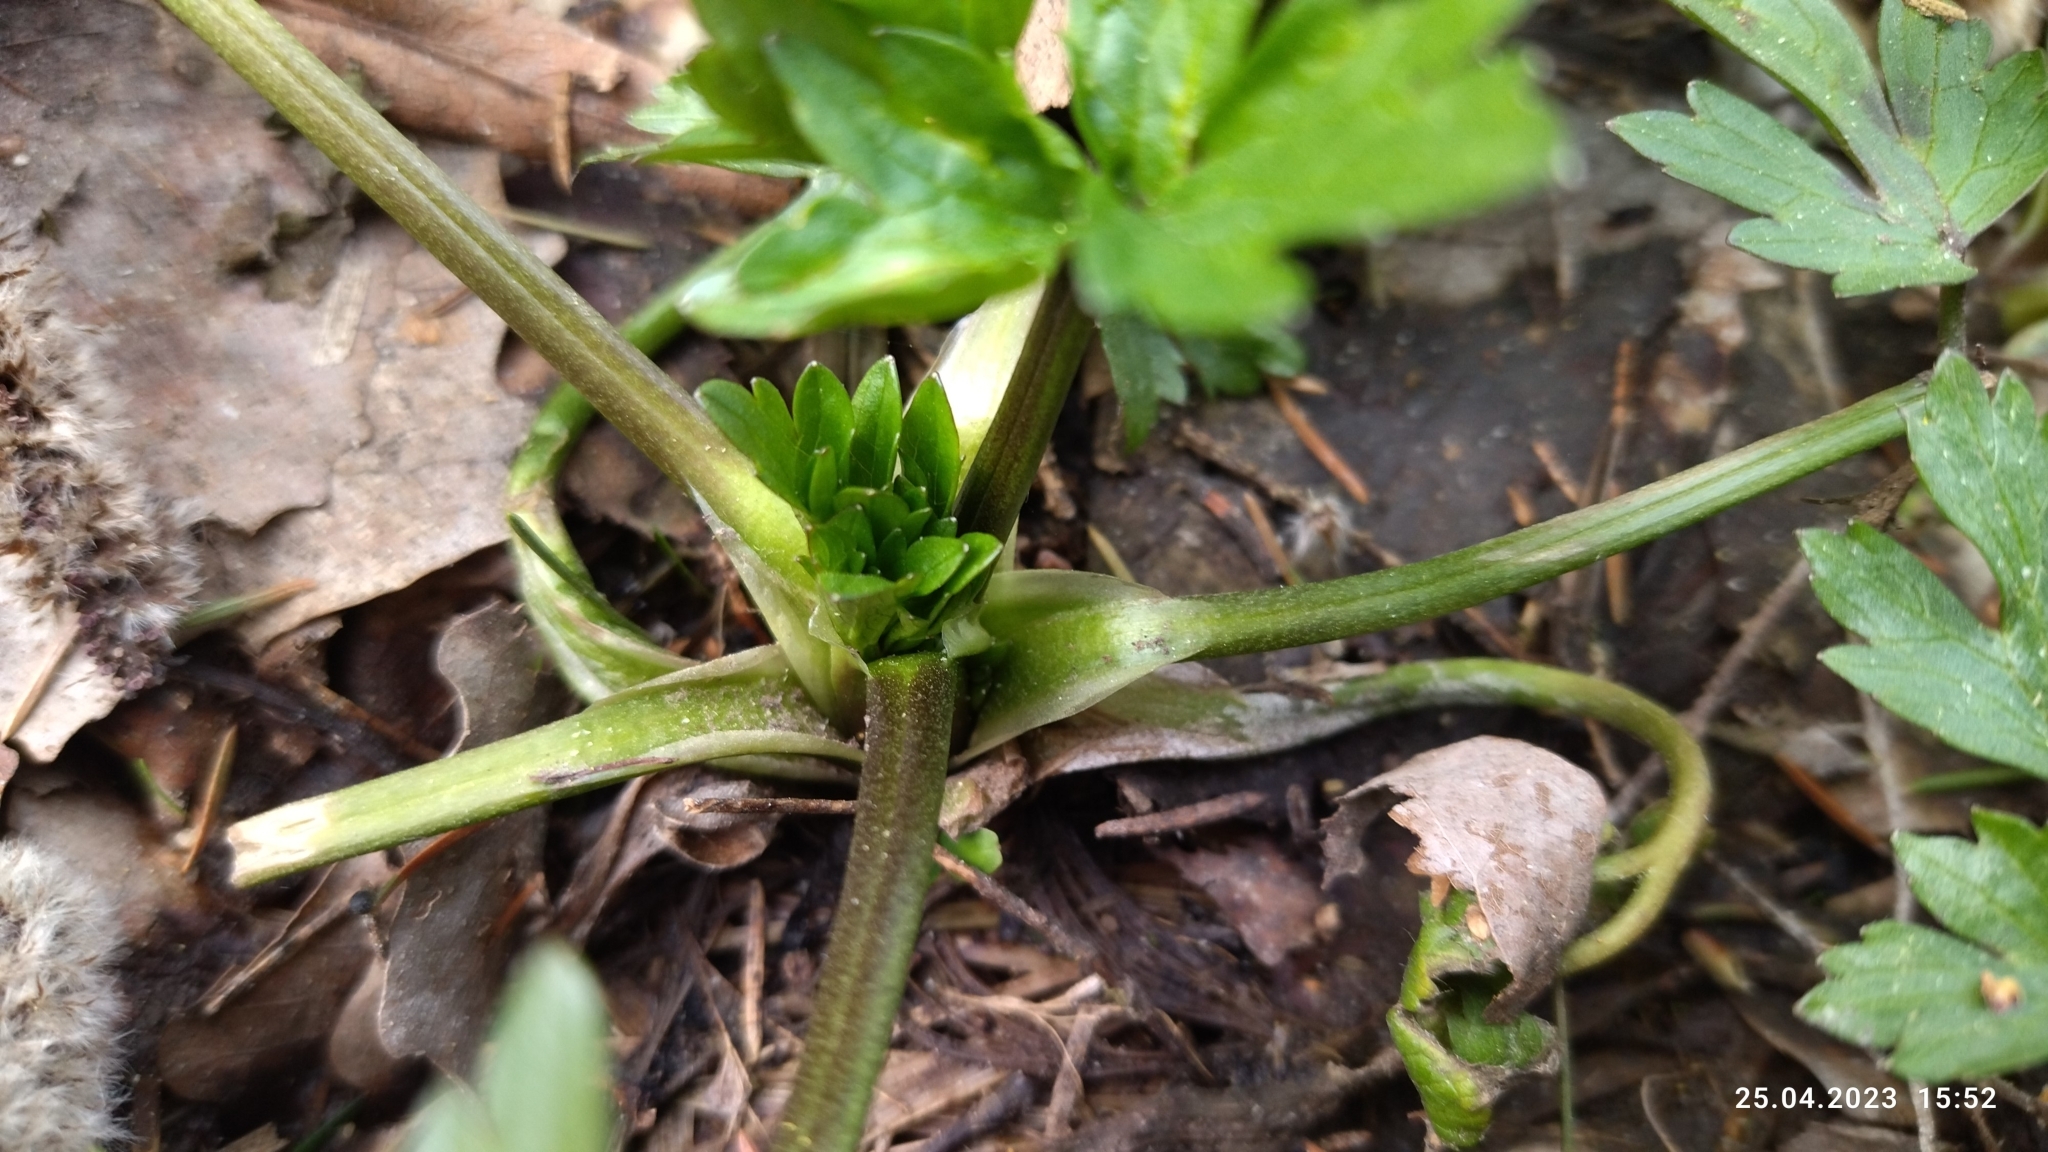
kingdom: Plantae
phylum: Tracheophyta
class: Magnoliopsida
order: Ranunculales
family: Ranunculaceae
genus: Ranunculus
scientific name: Ranunculus repens
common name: Creeping buttercup
